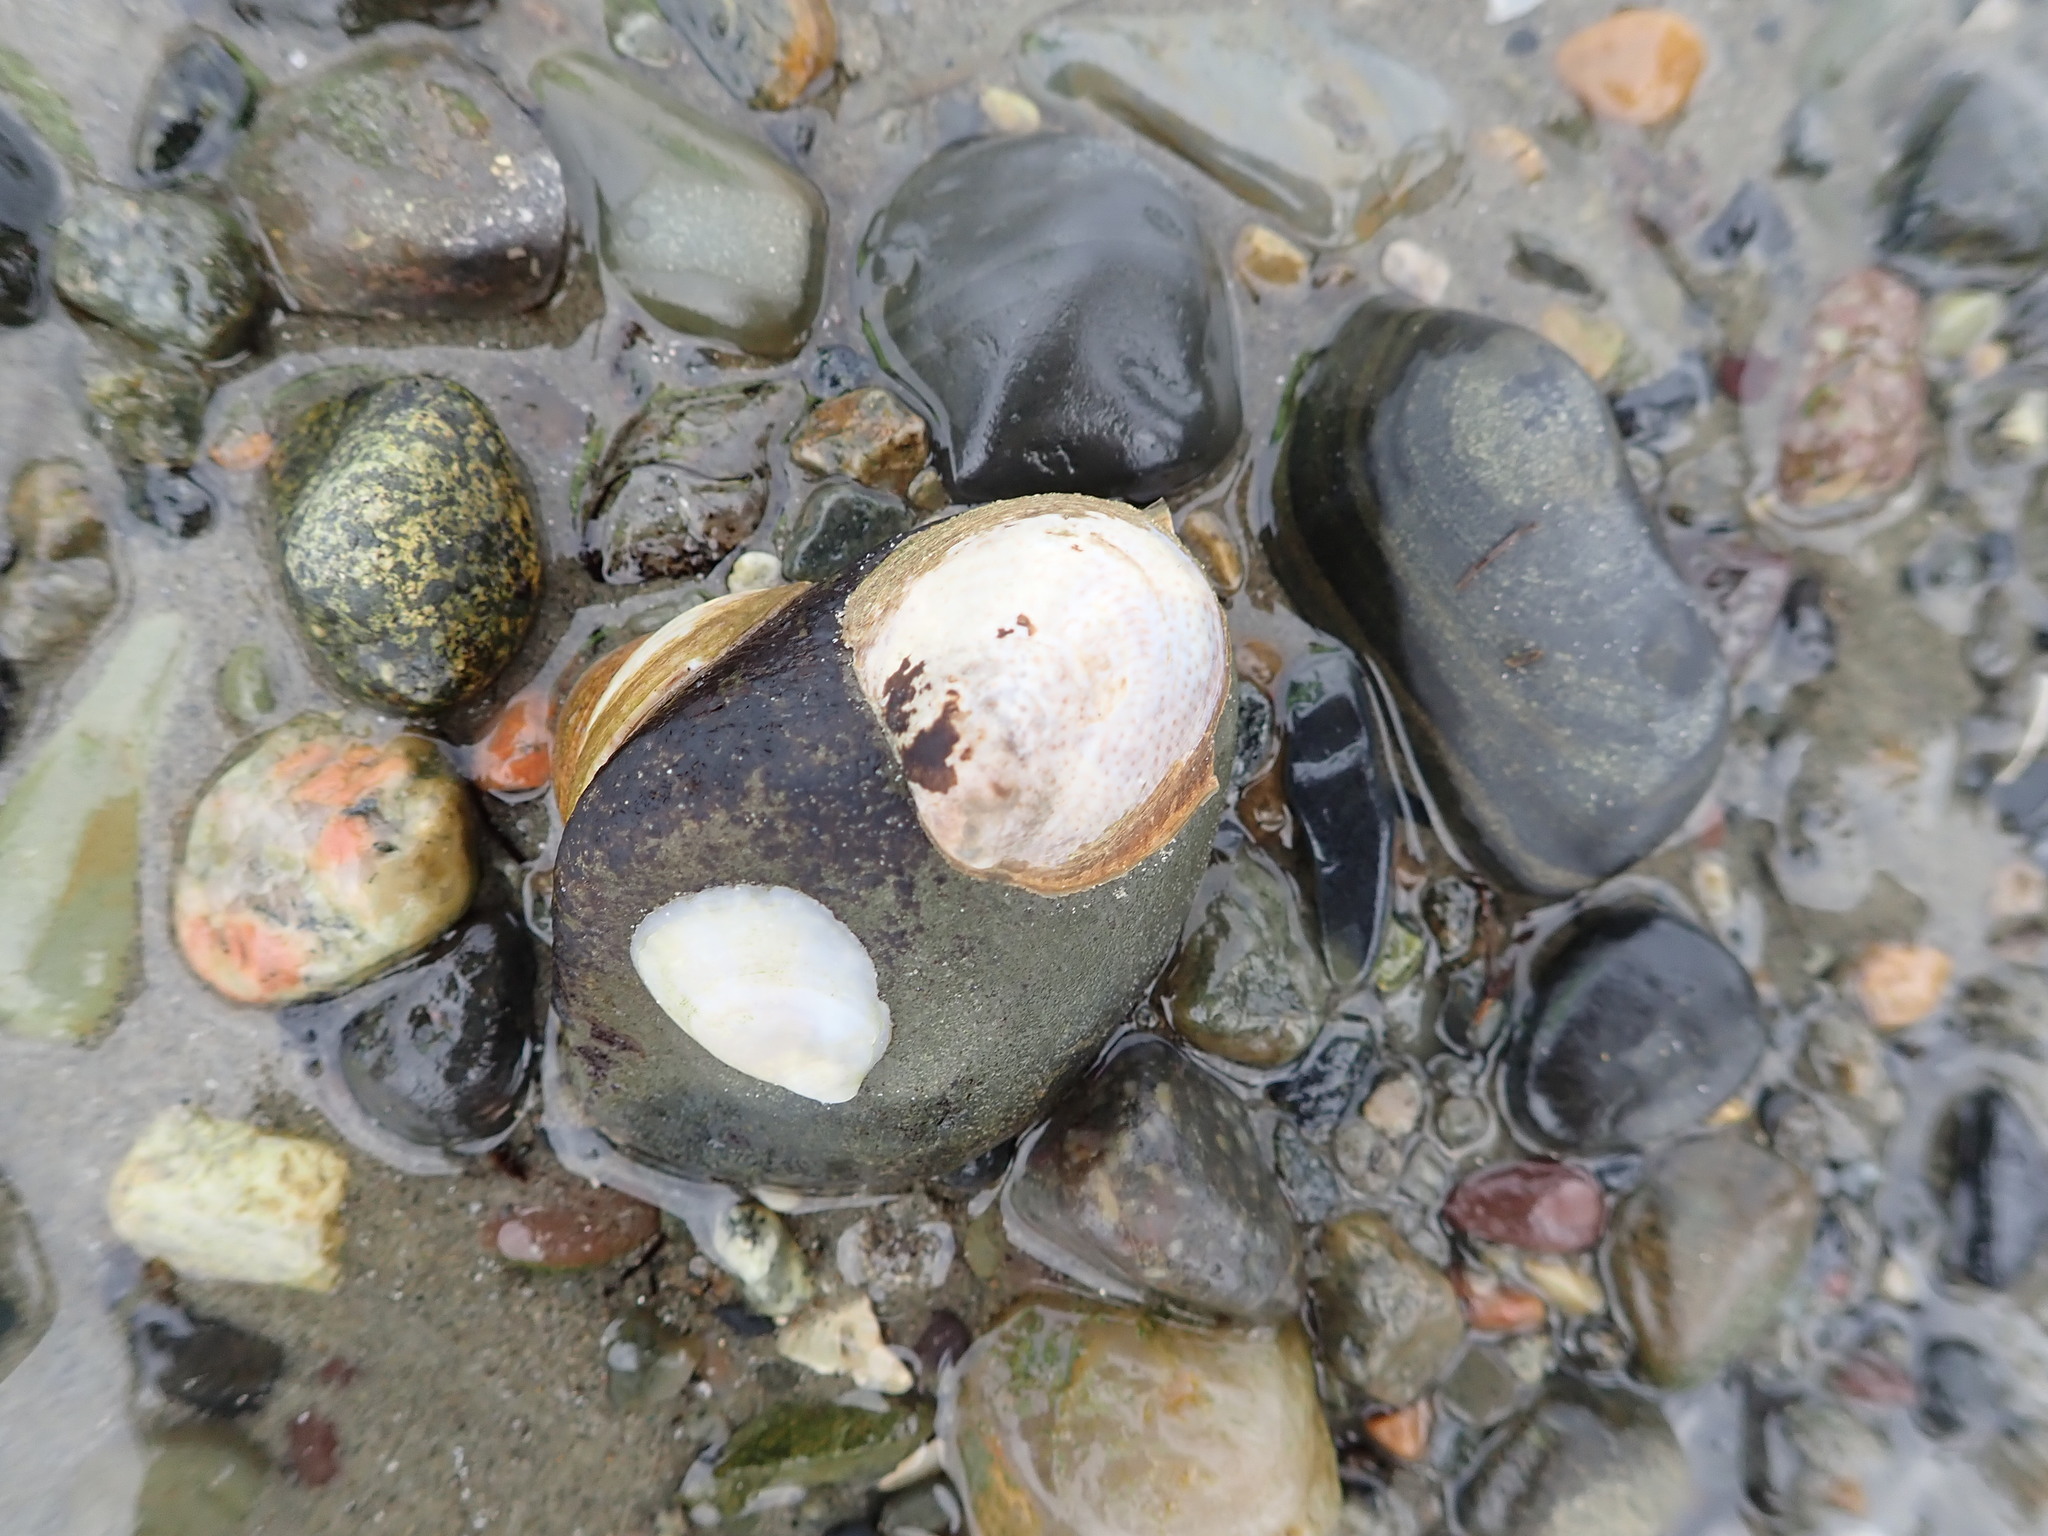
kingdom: Animalia
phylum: Mollusca
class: Gastropoda
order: Littorinimorpha
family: Calyptraeidae
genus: Crepidula
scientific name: Crepidula fornicata
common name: Slipper limpet
